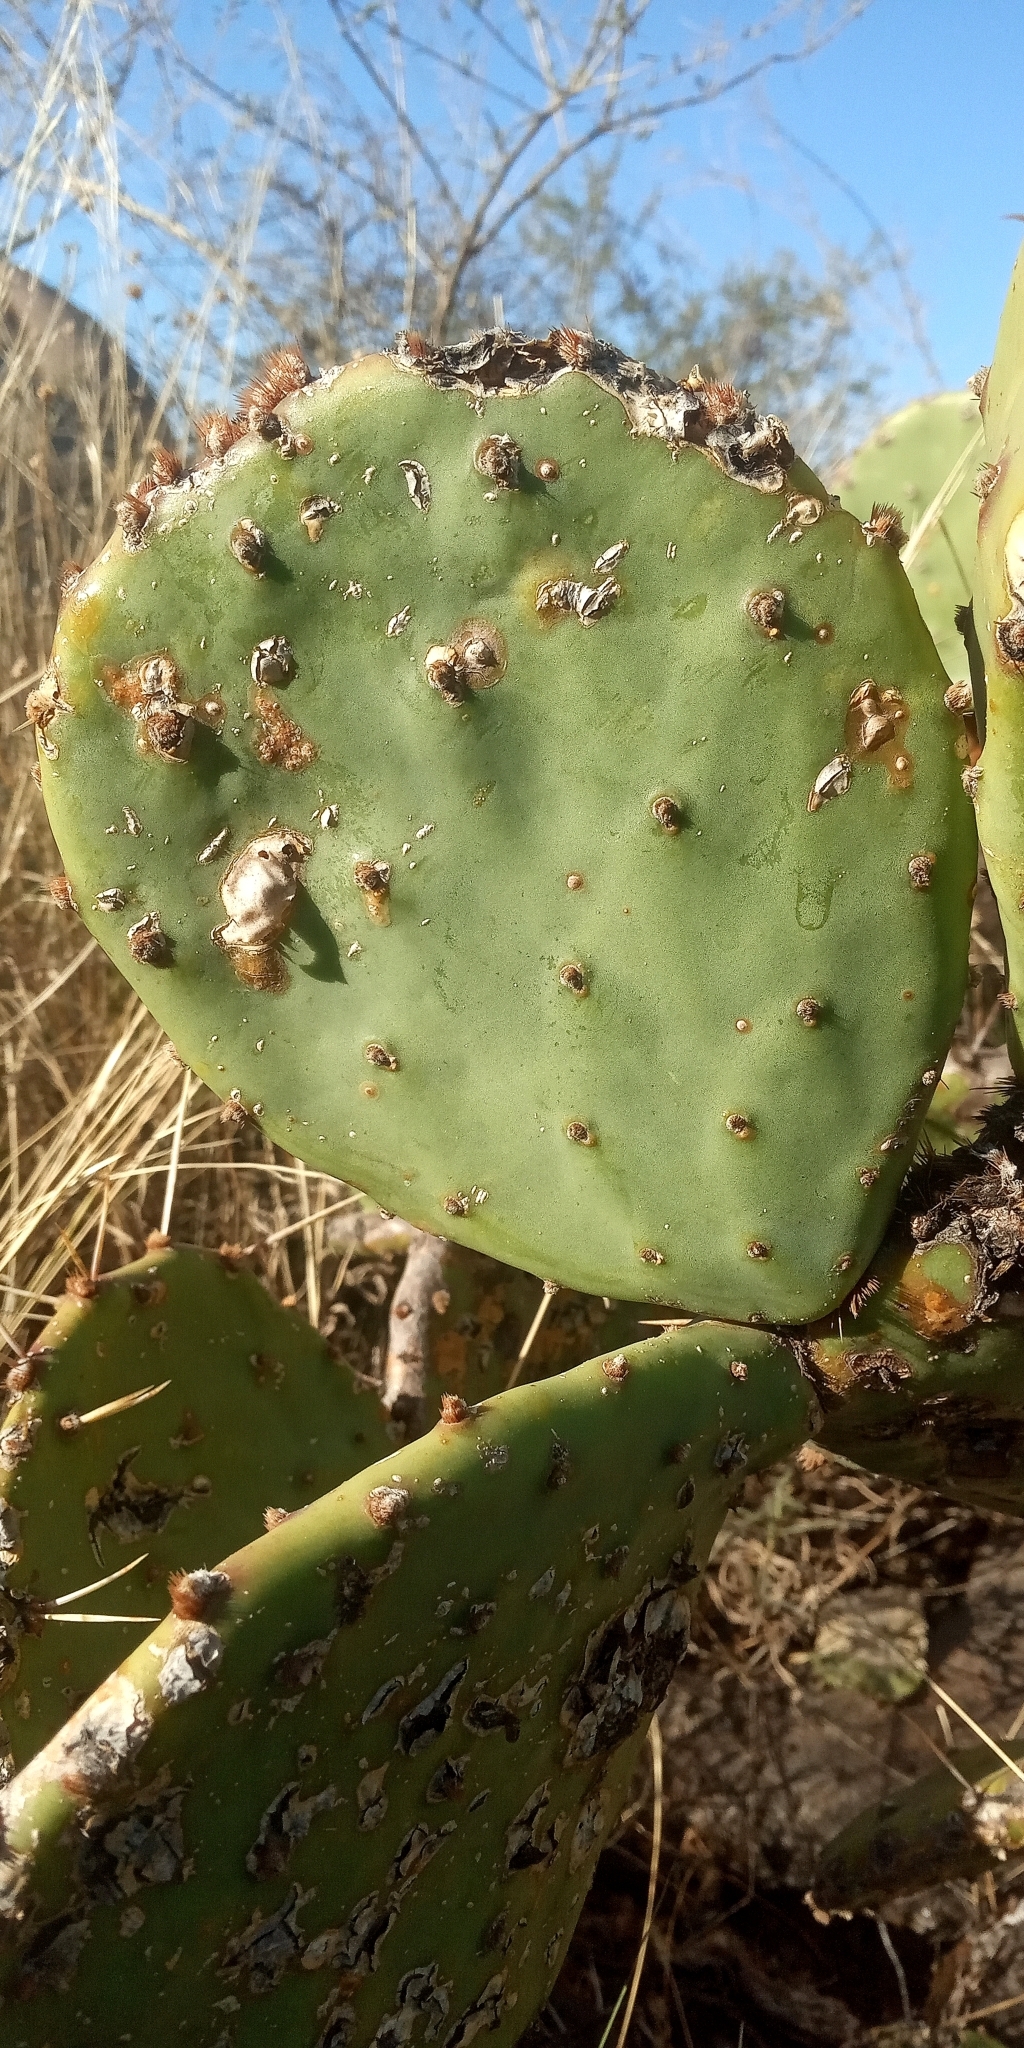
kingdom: Plantae
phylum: Tracheophyta
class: Magnoliopsida
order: Caryophyllales
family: Cactaceae
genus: Opuntia
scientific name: Opuntia megapotamica
